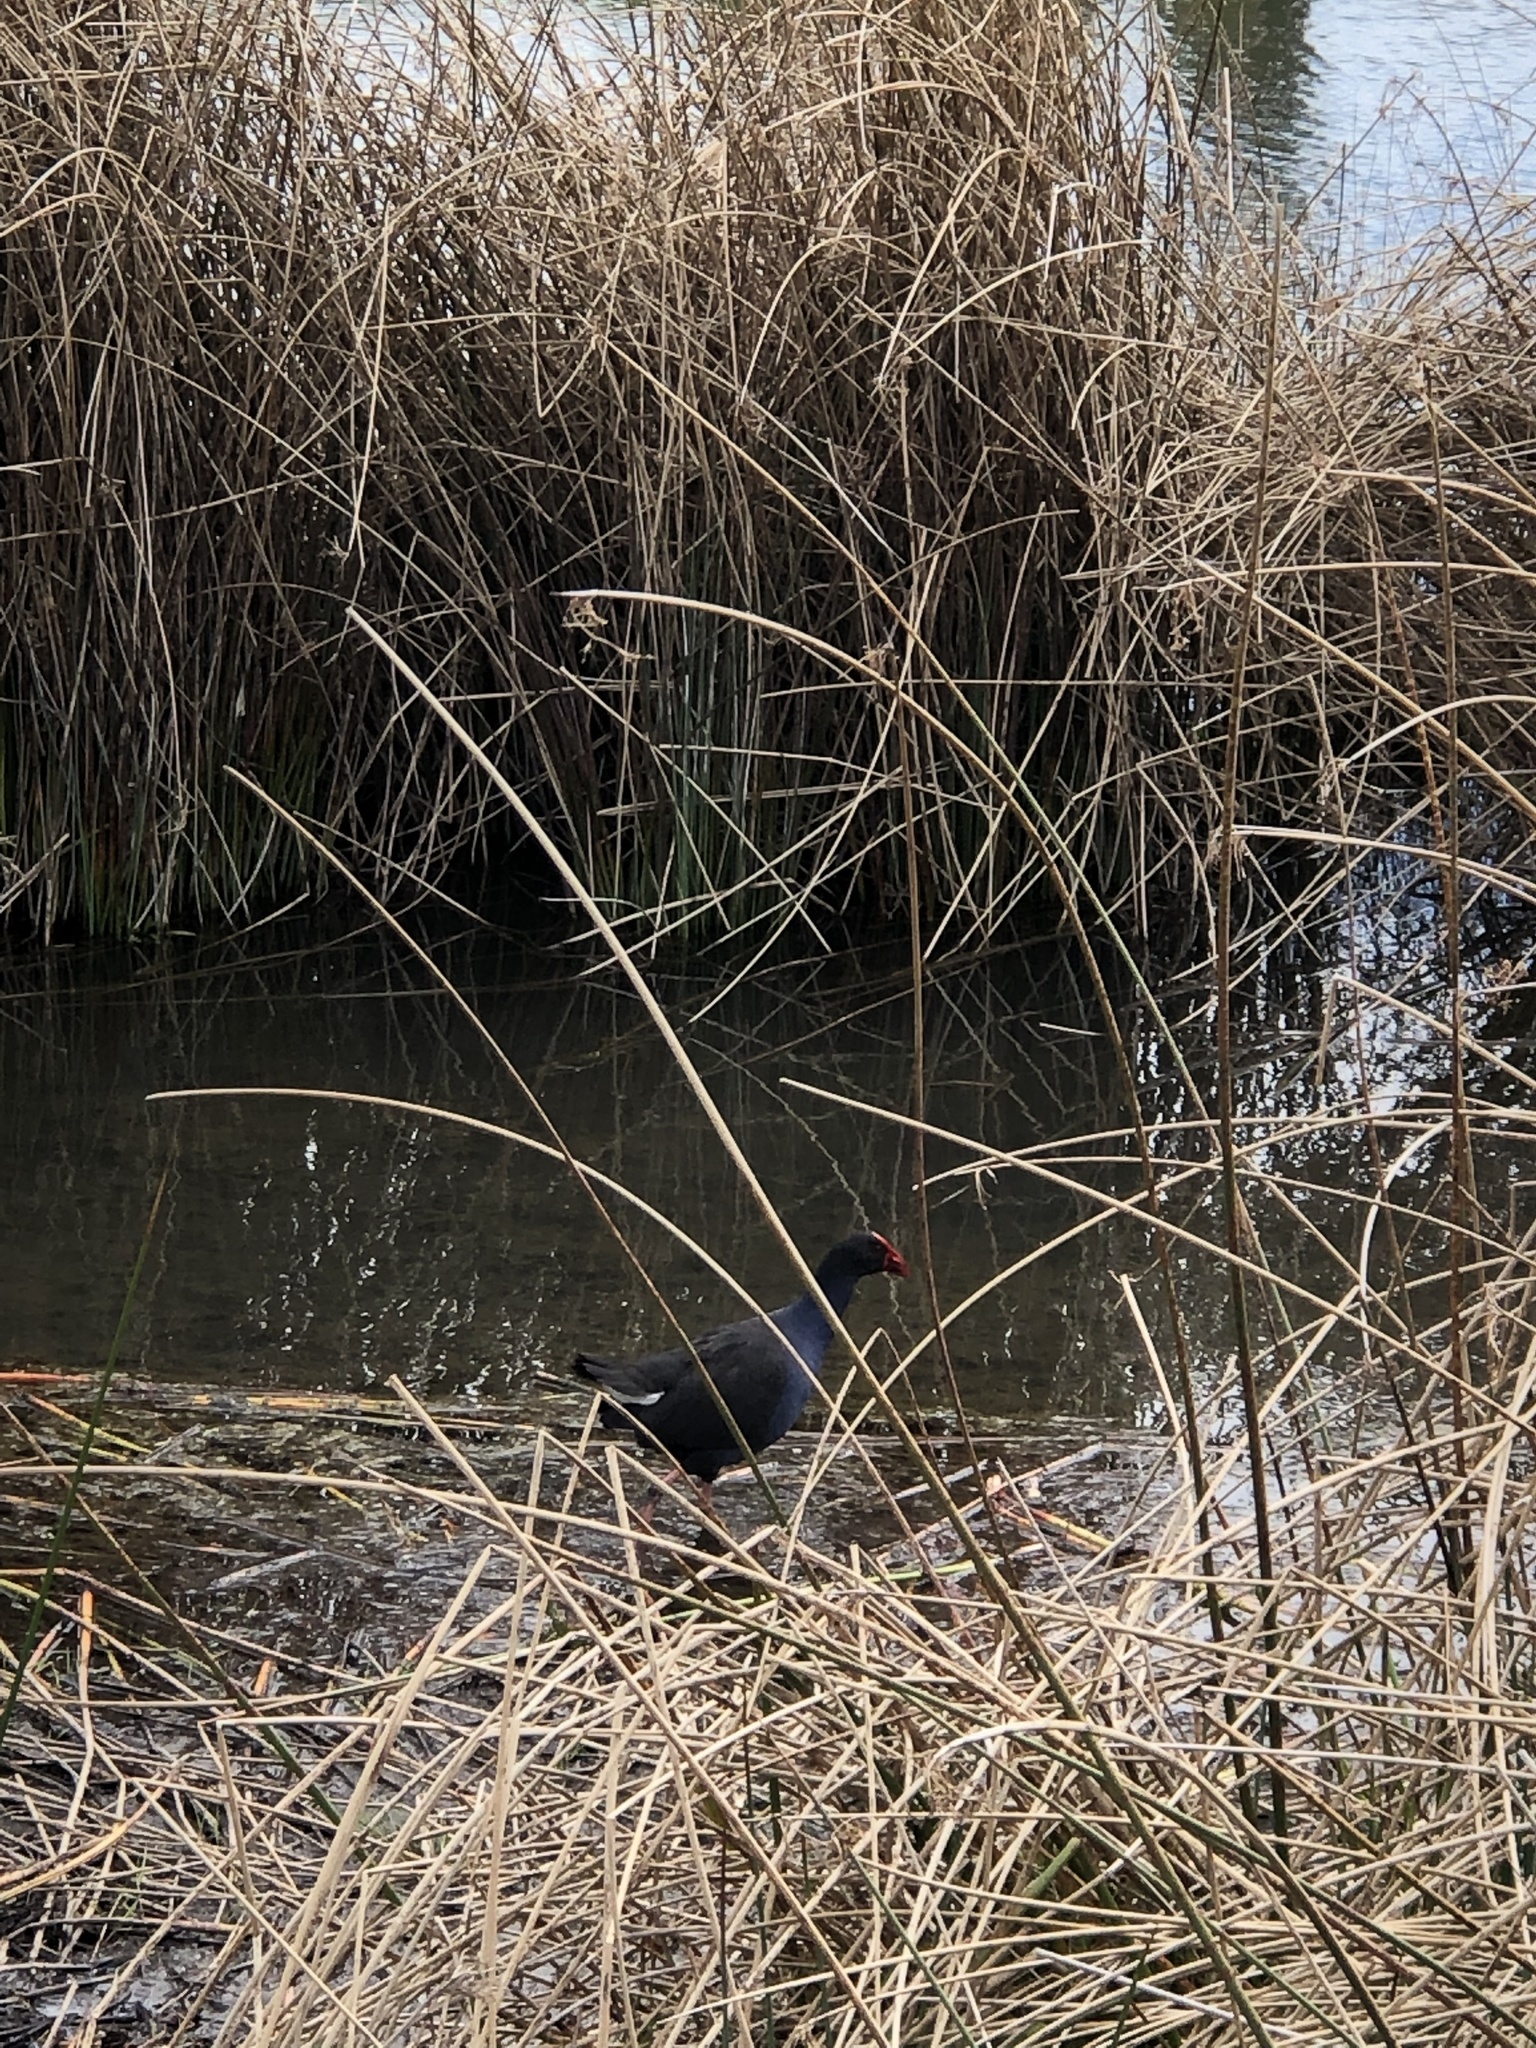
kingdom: Animalia
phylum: Chordata
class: Aves
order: Gruiformes
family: Rallidae
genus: Porphyrio
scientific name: Porphyrio melanotus
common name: Australasian swamphen
